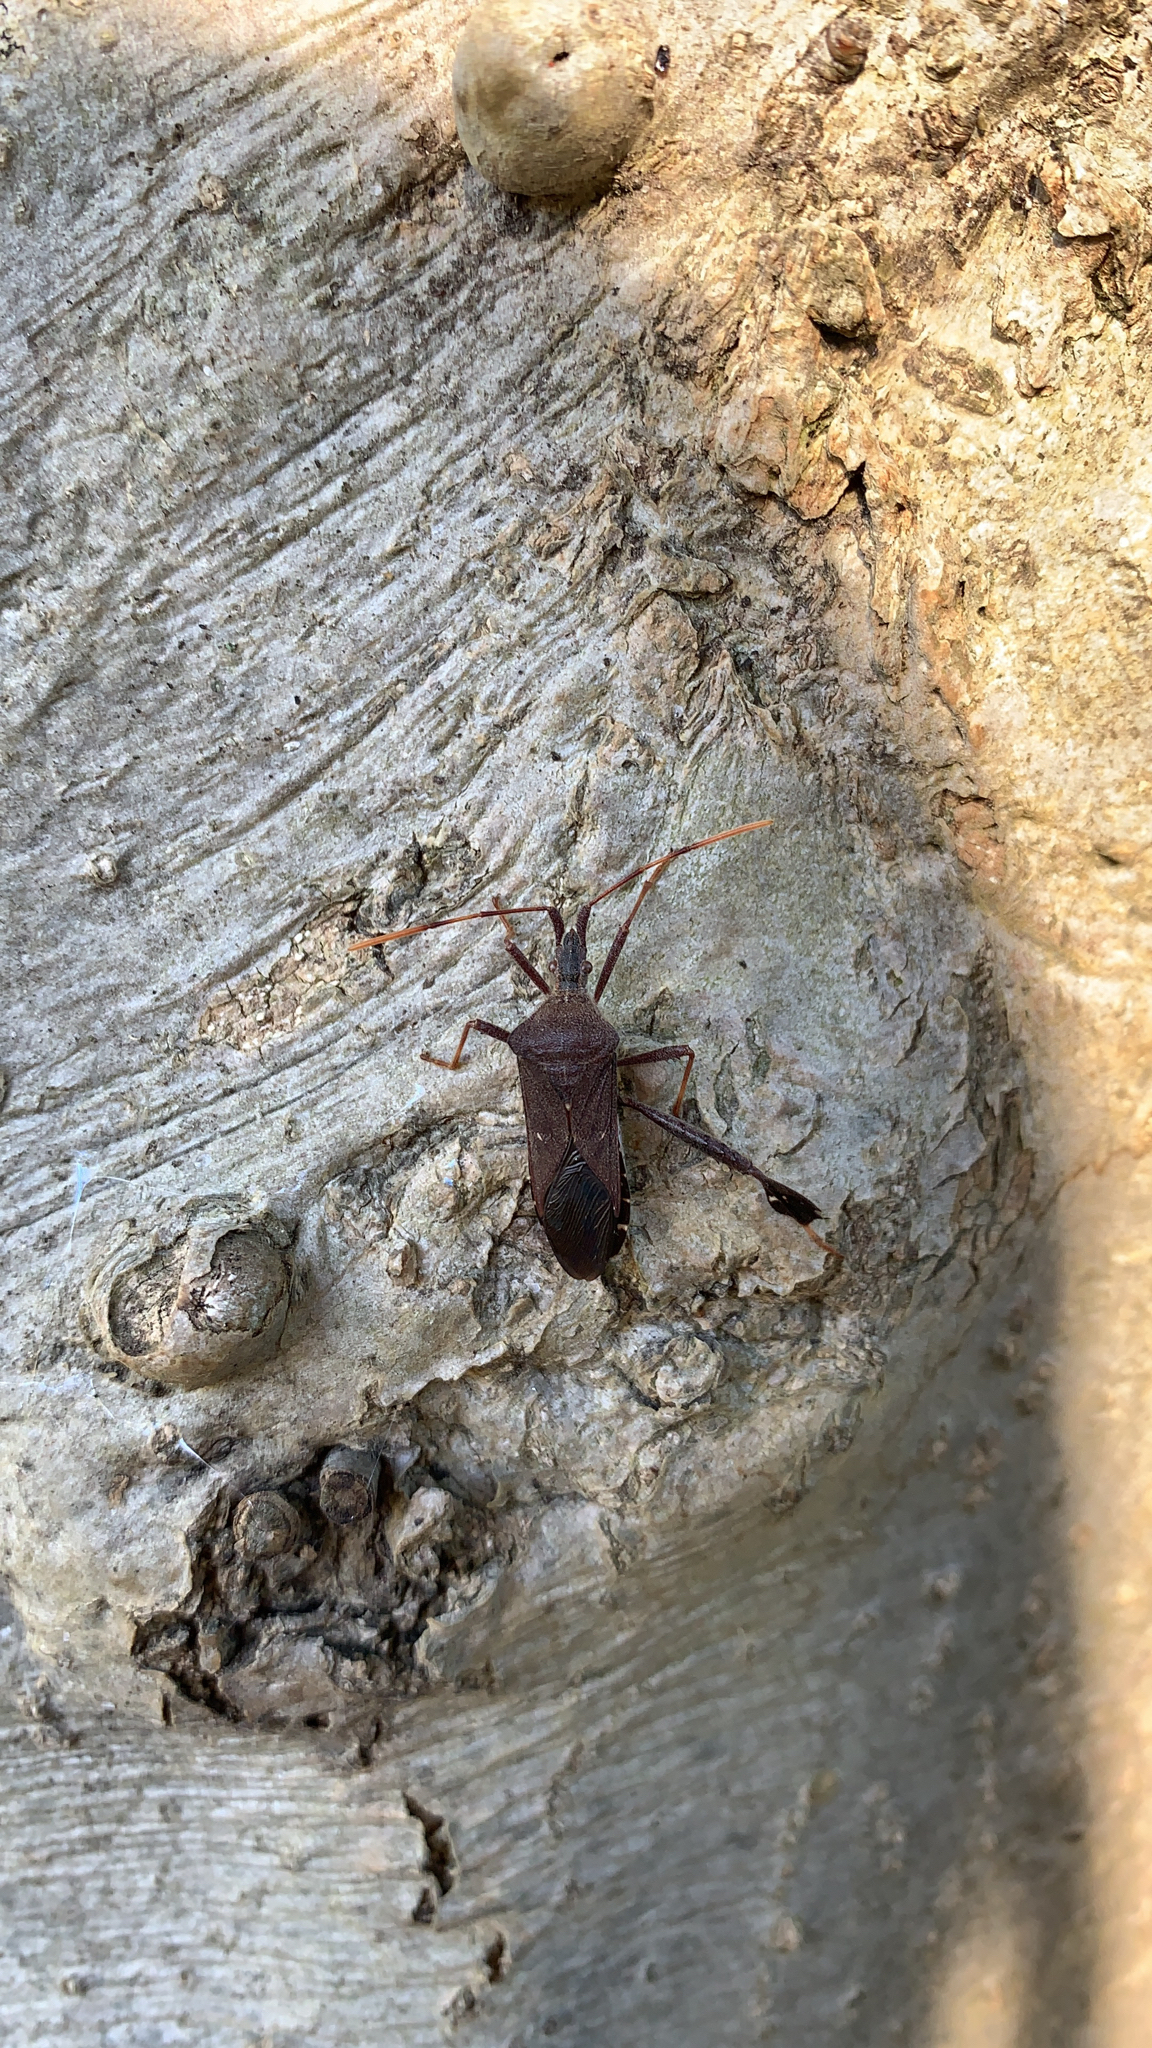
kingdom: Animalia
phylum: Arthropoda
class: Insecta
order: Hemiptera
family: Coreidae
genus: Leptoglossus
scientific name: Leptoglossus oppositus
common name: Northern leaf-footed bug
